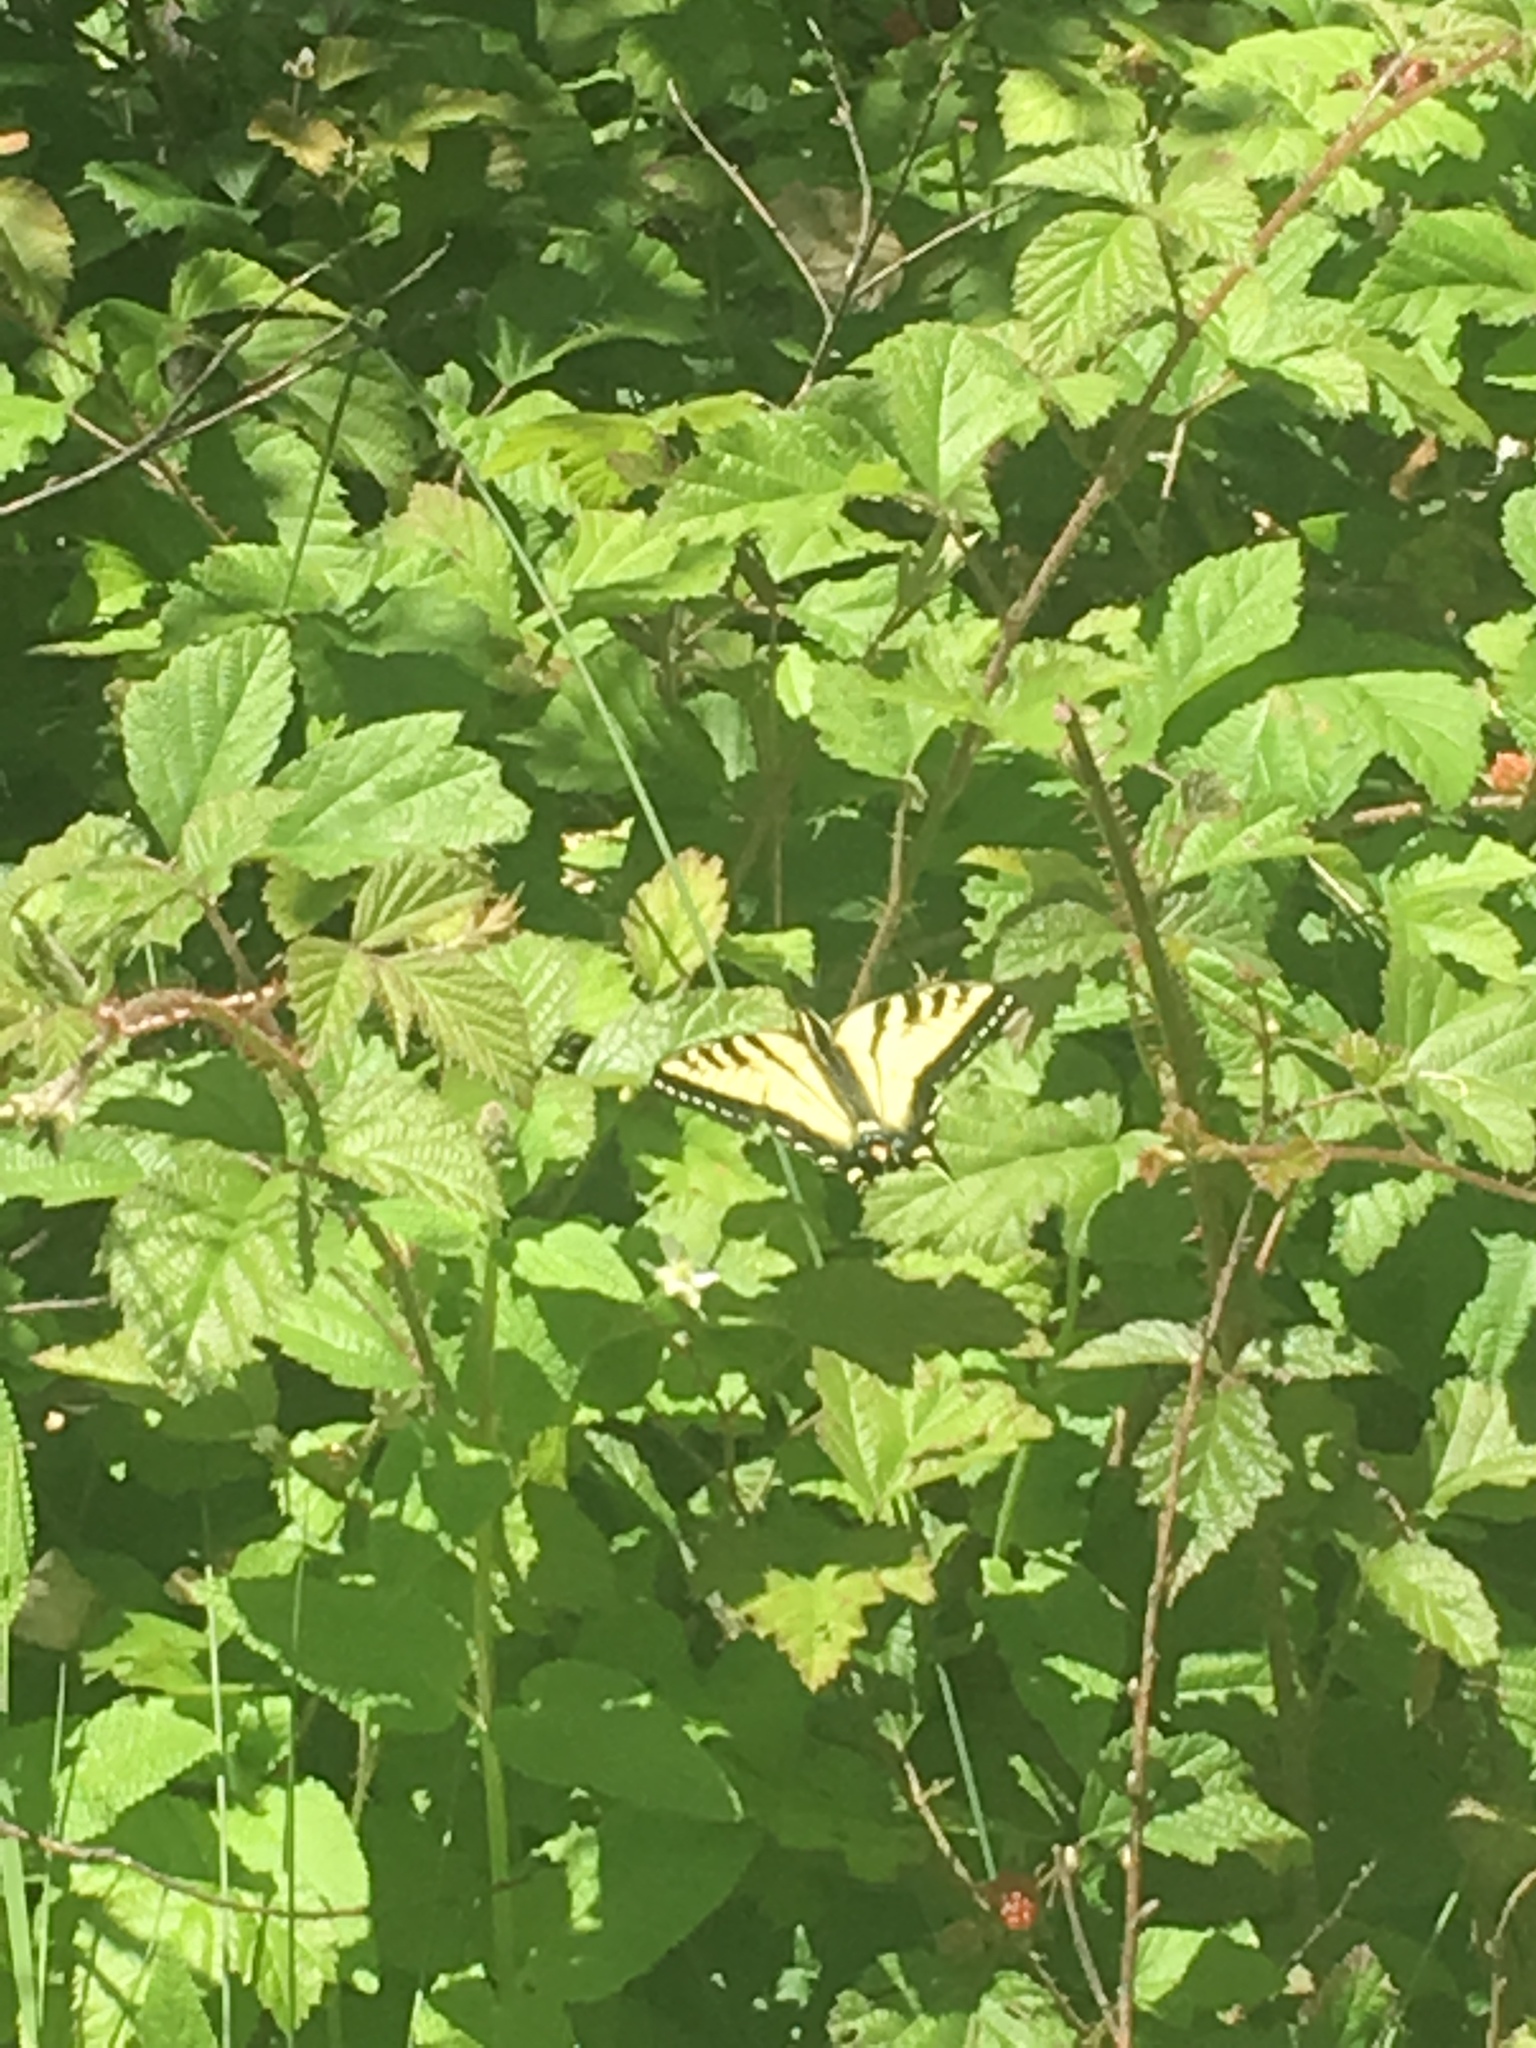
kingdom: Animalia
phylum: Arthropoda
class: Insecta
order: Lepidoptera
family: Papilionidae
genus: Papilio
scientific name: Papilio rutulus
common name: Western tiger swallowtail
